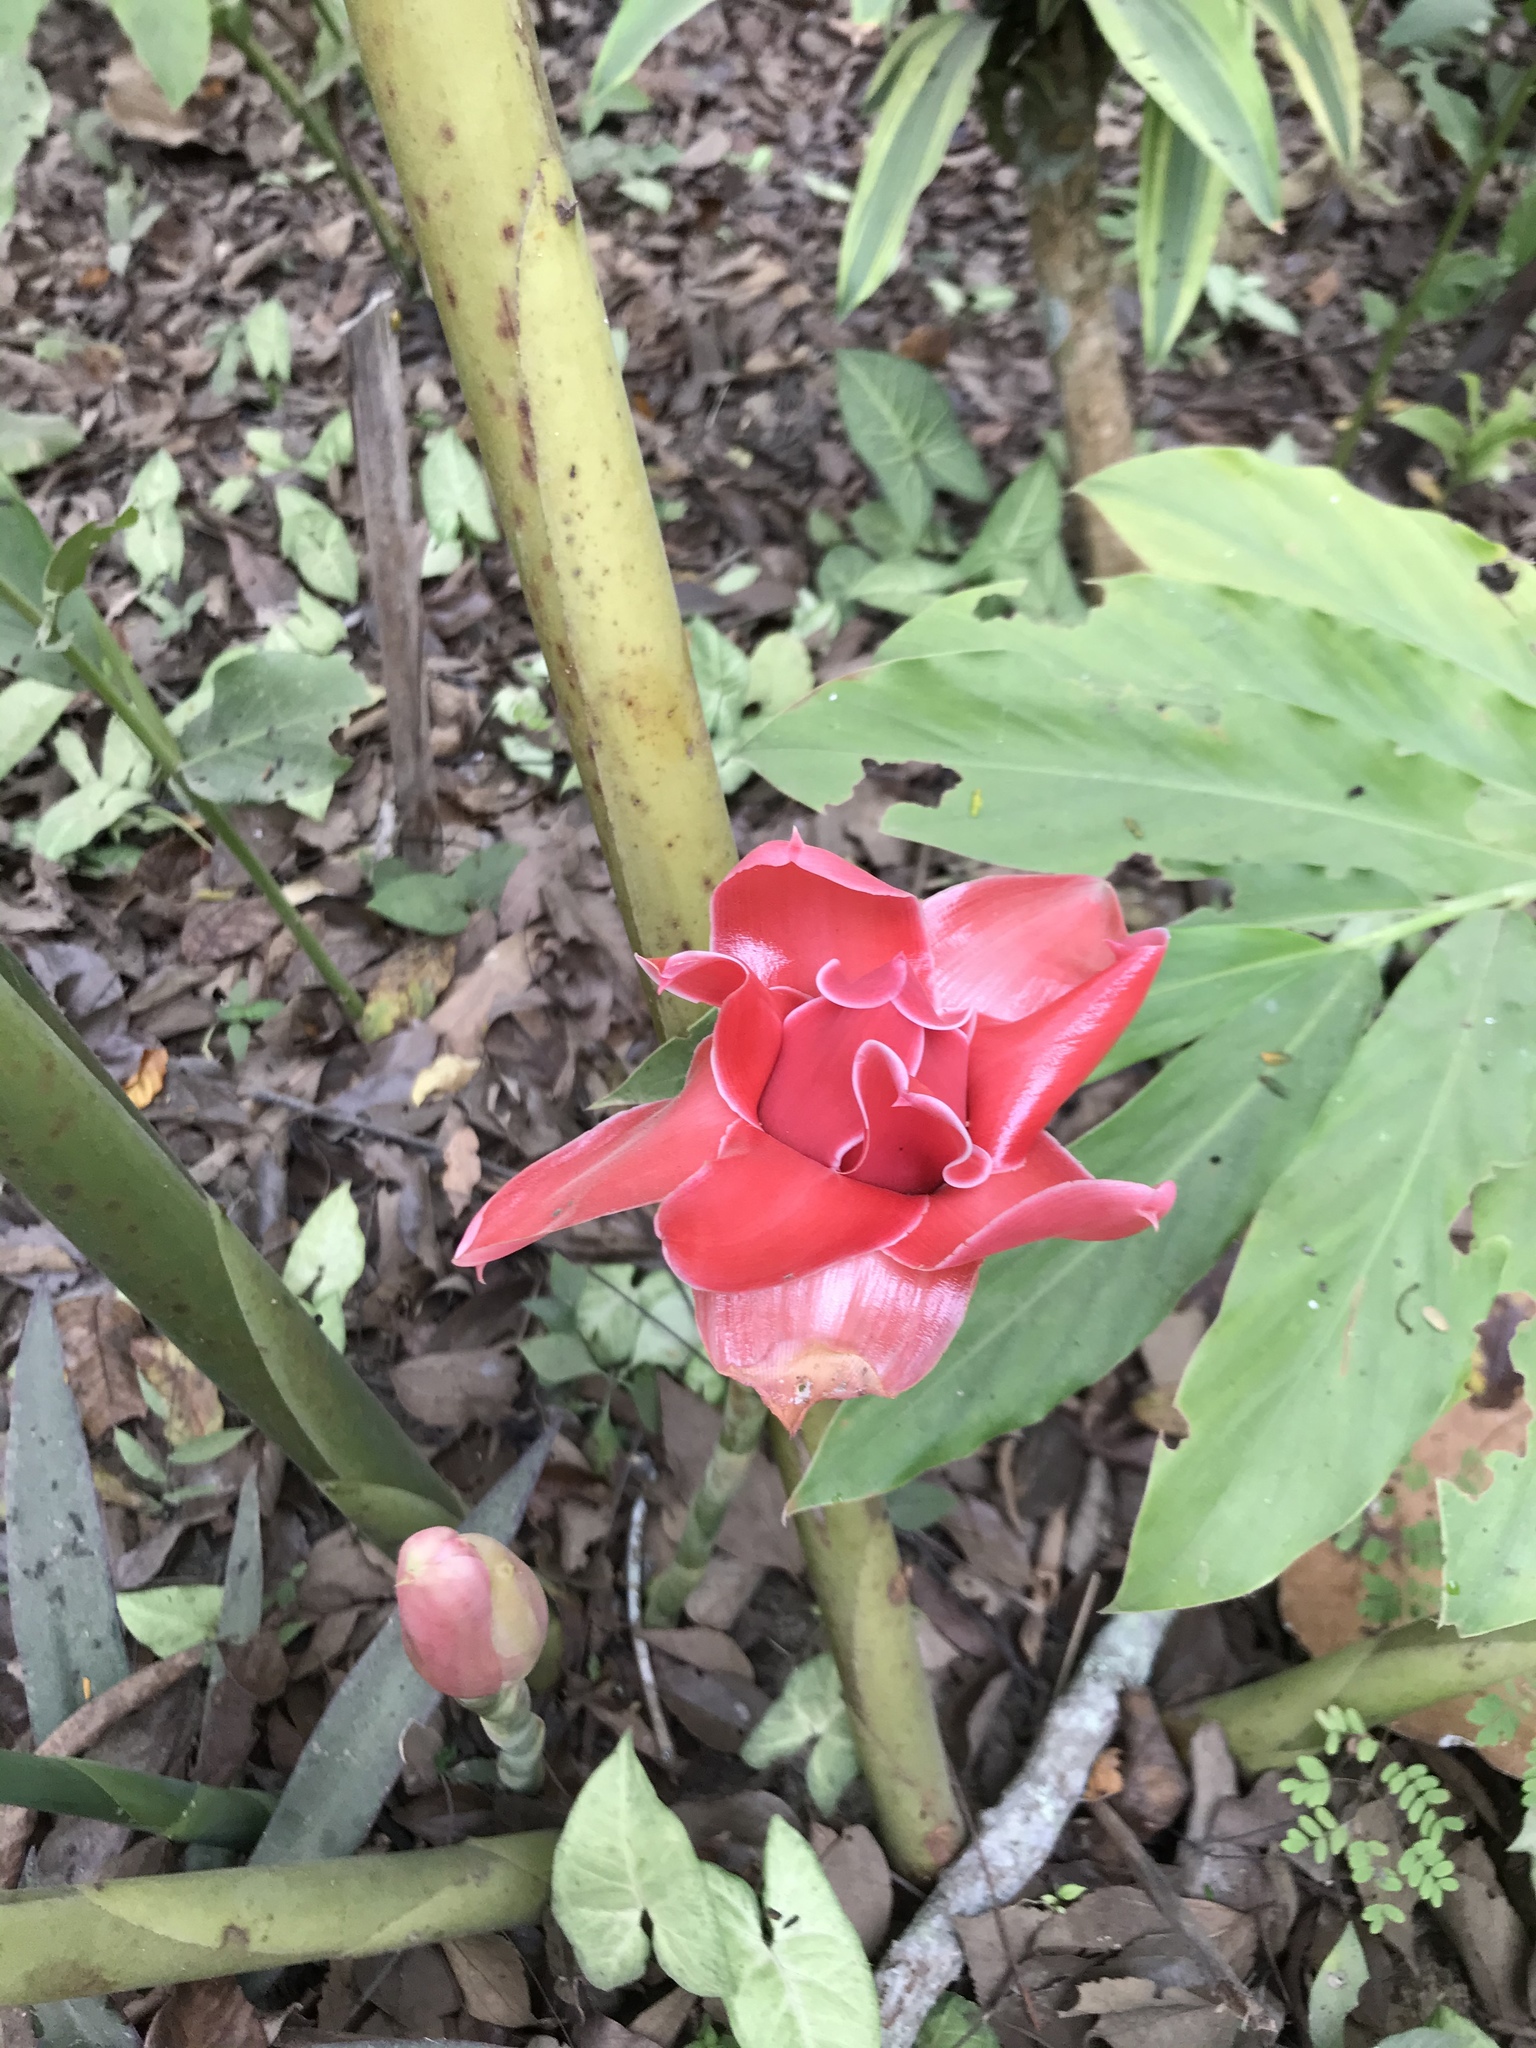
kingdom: Plantae
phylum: Tracheophyta
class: Liliopsida
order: Zingiberales
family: Zingiberaceae
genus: Etlingera
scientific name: Etlingera elatior
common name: Philippine waxflower
